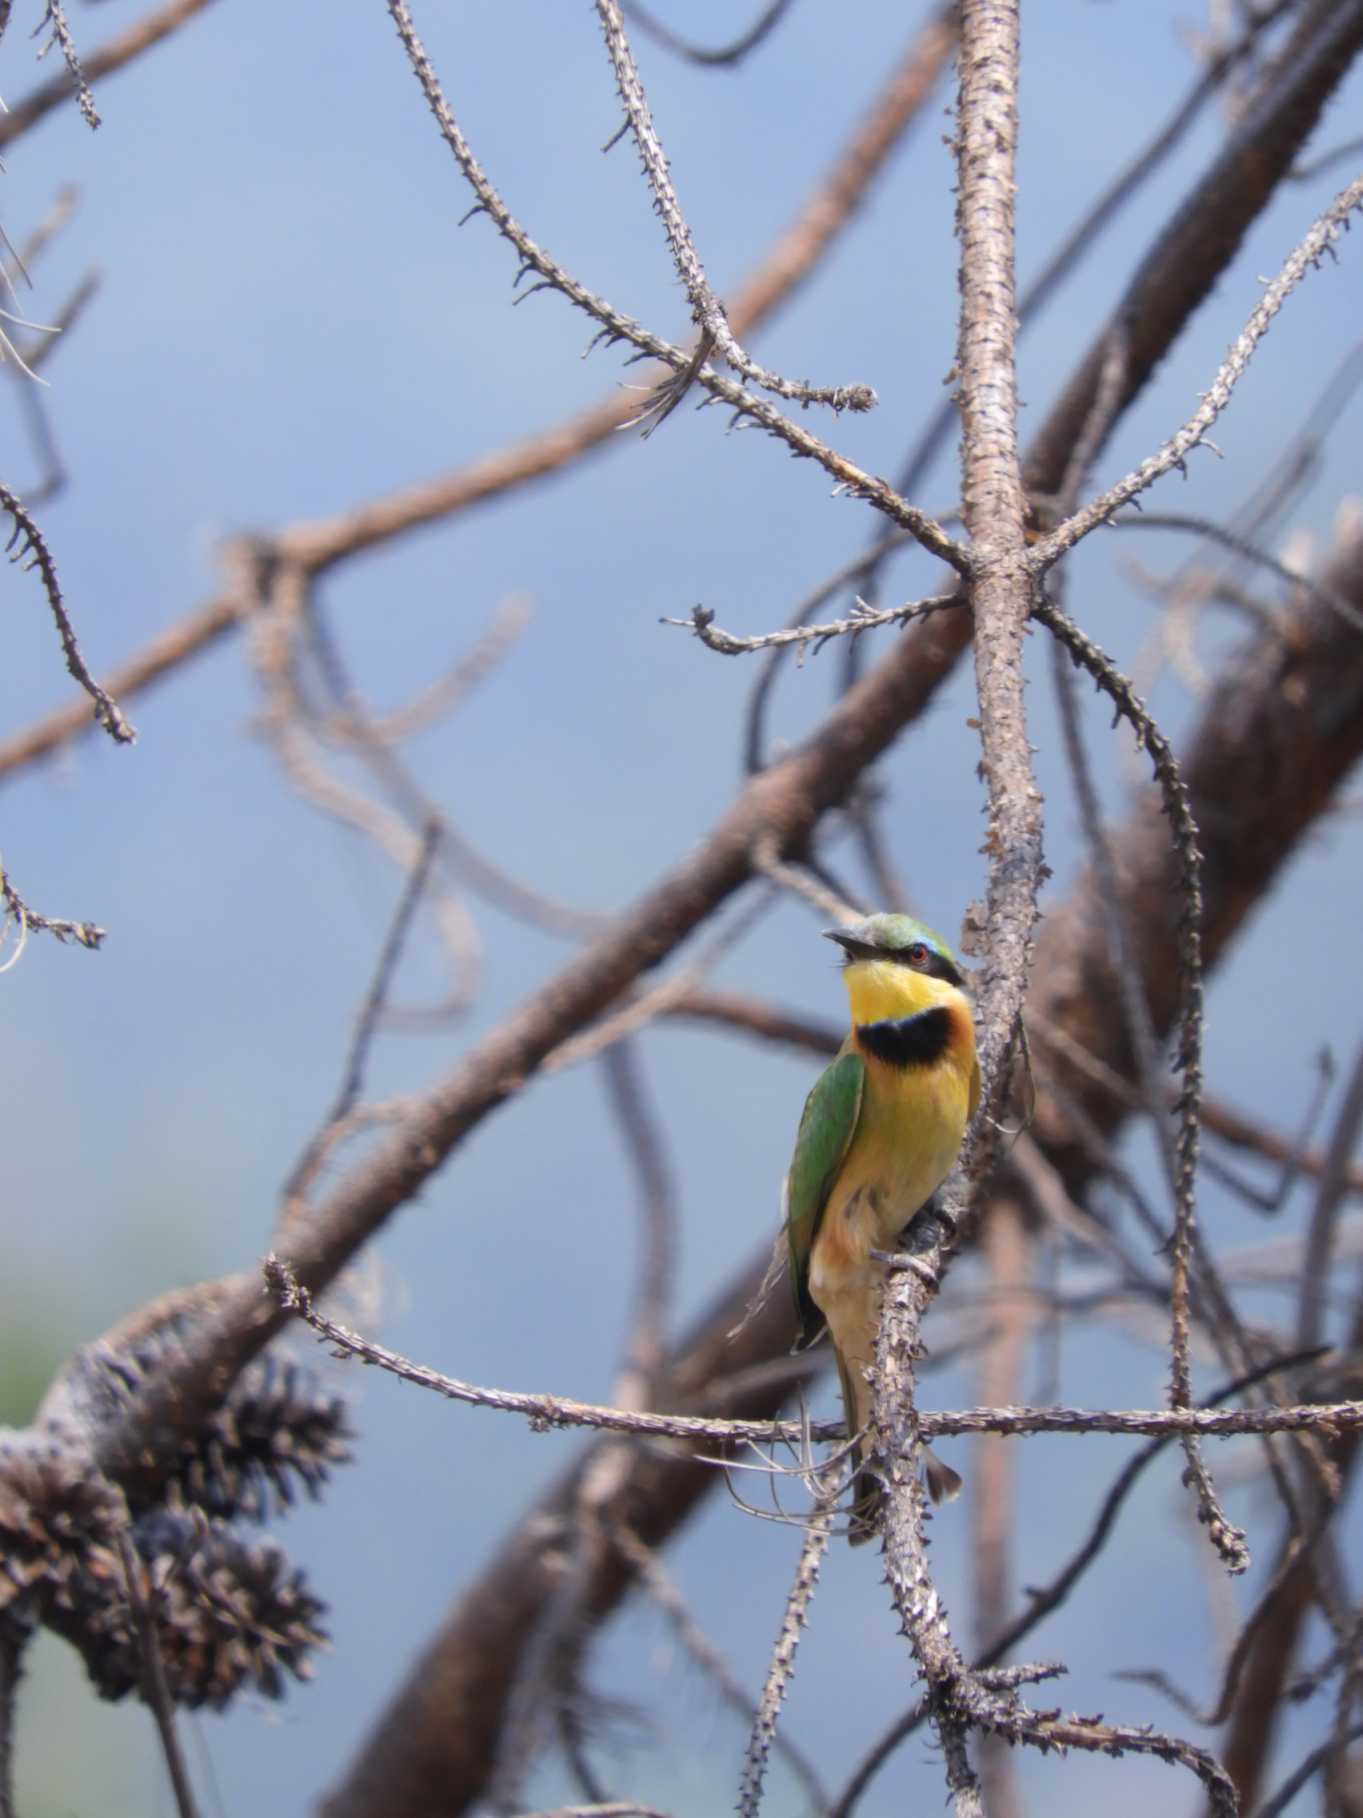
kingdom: Animalia
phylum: Chordata
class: Aves
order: Coraciiformes
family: Meropidae
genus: Merops
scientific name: Merops pusillus
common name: Little bee-eater
